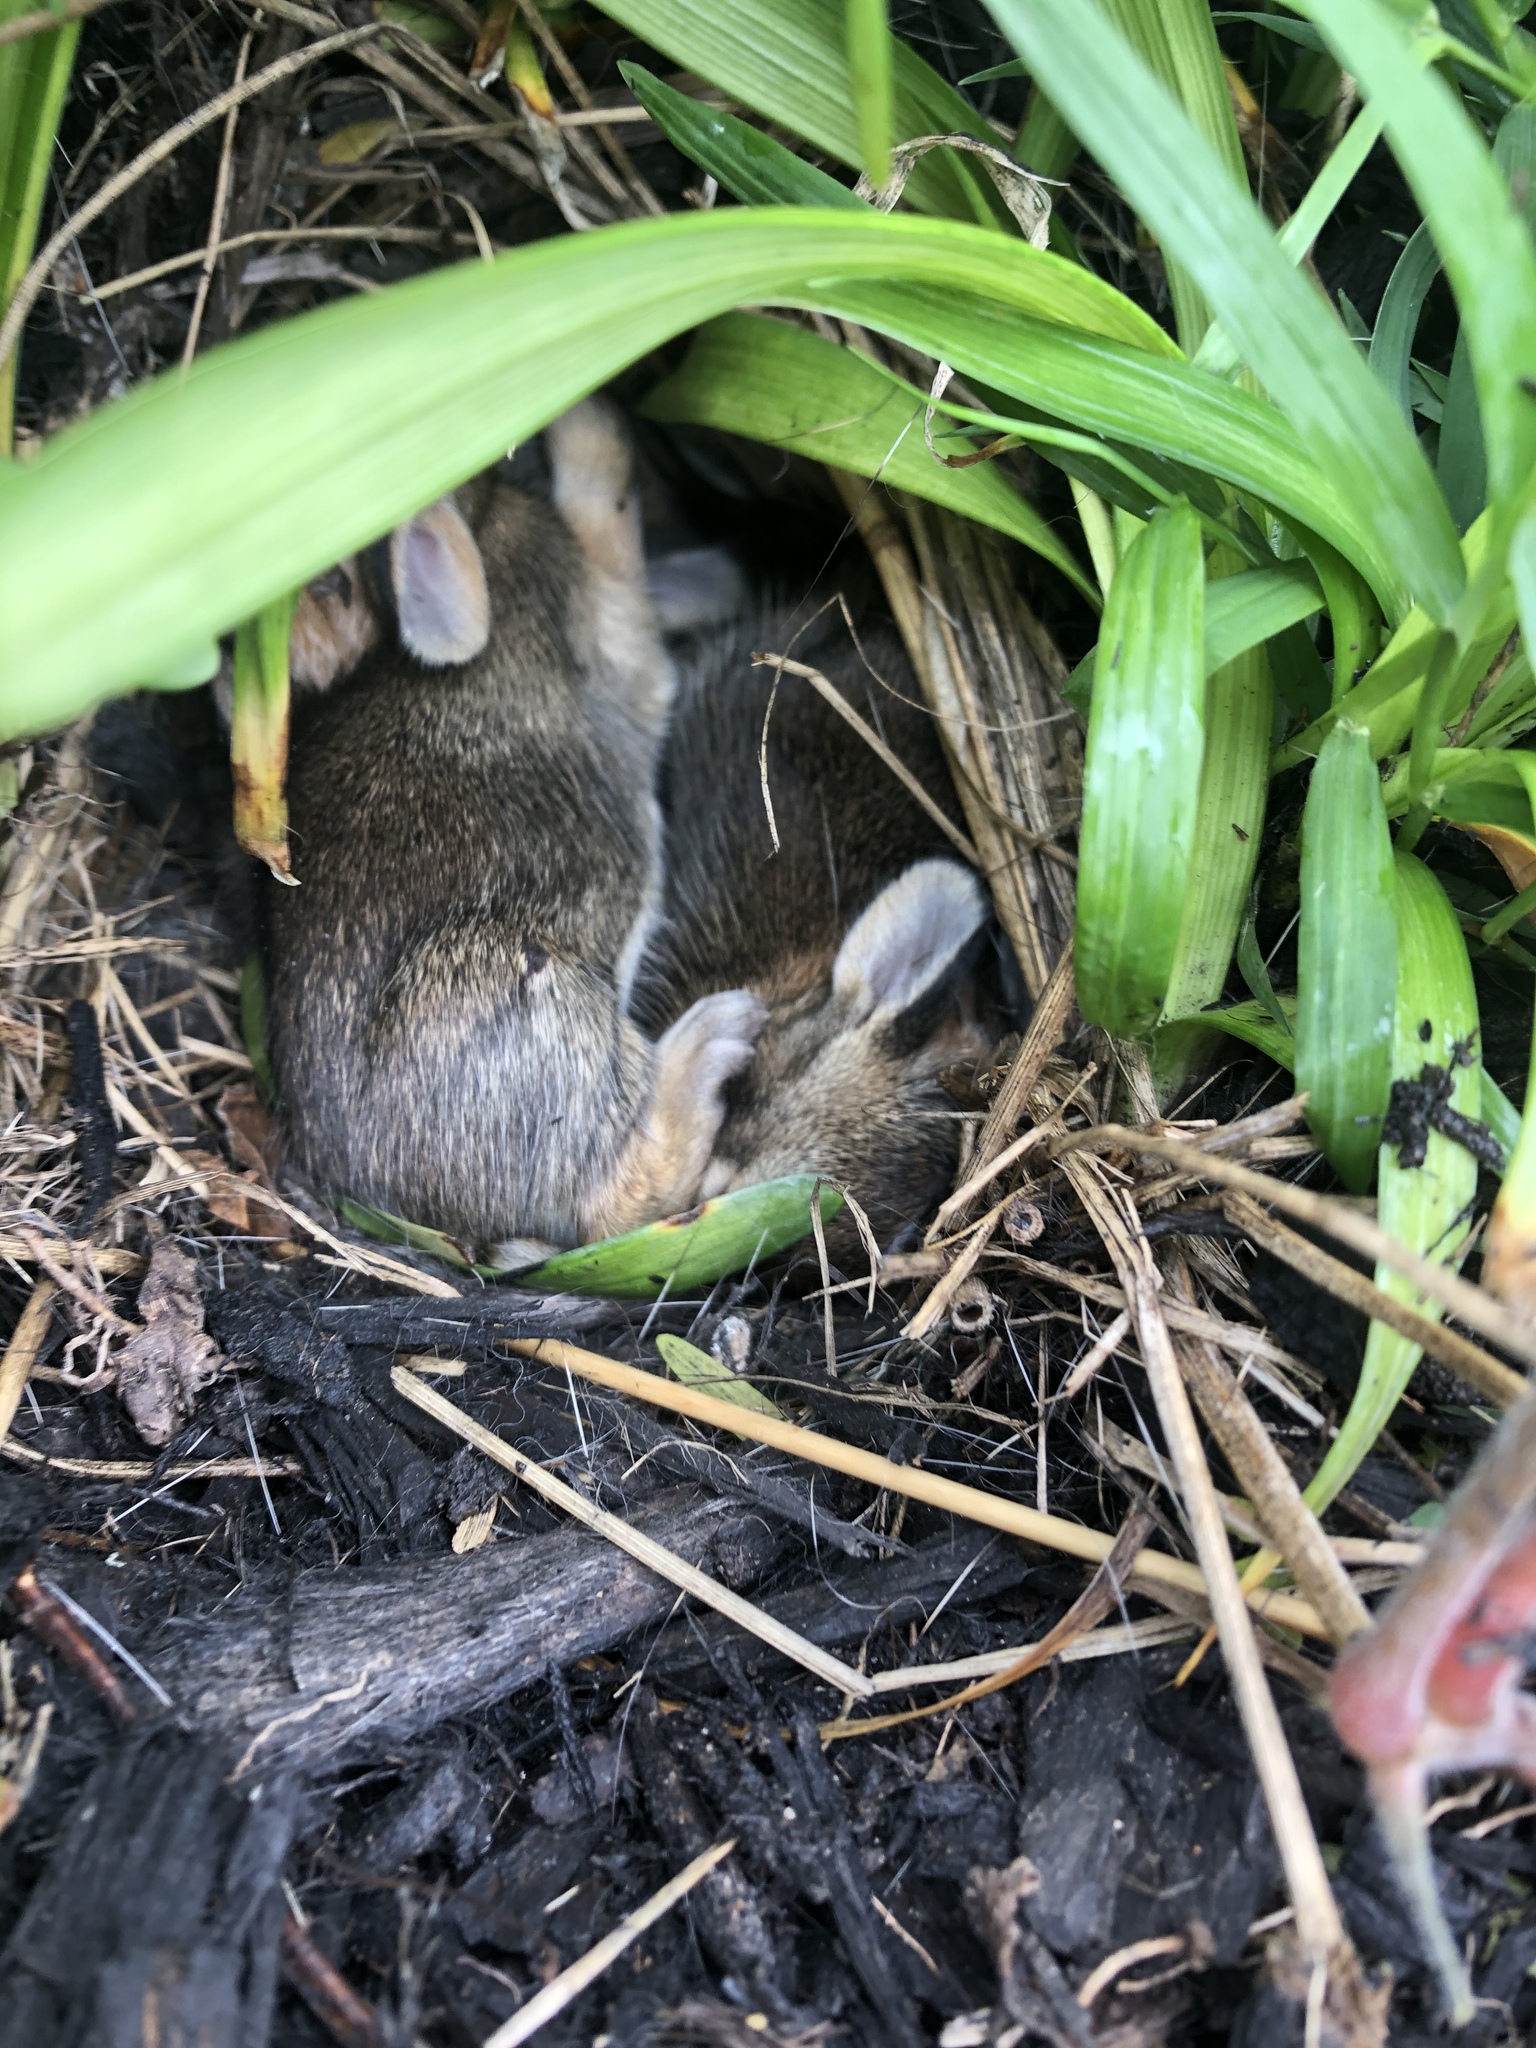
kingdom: Animalia
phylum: Chordata
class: Mammalia
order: Lagomorpha
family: Leporidae
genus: Sylvilagus
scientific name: Sylvilagus floridanus
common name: Eastern cottontail
